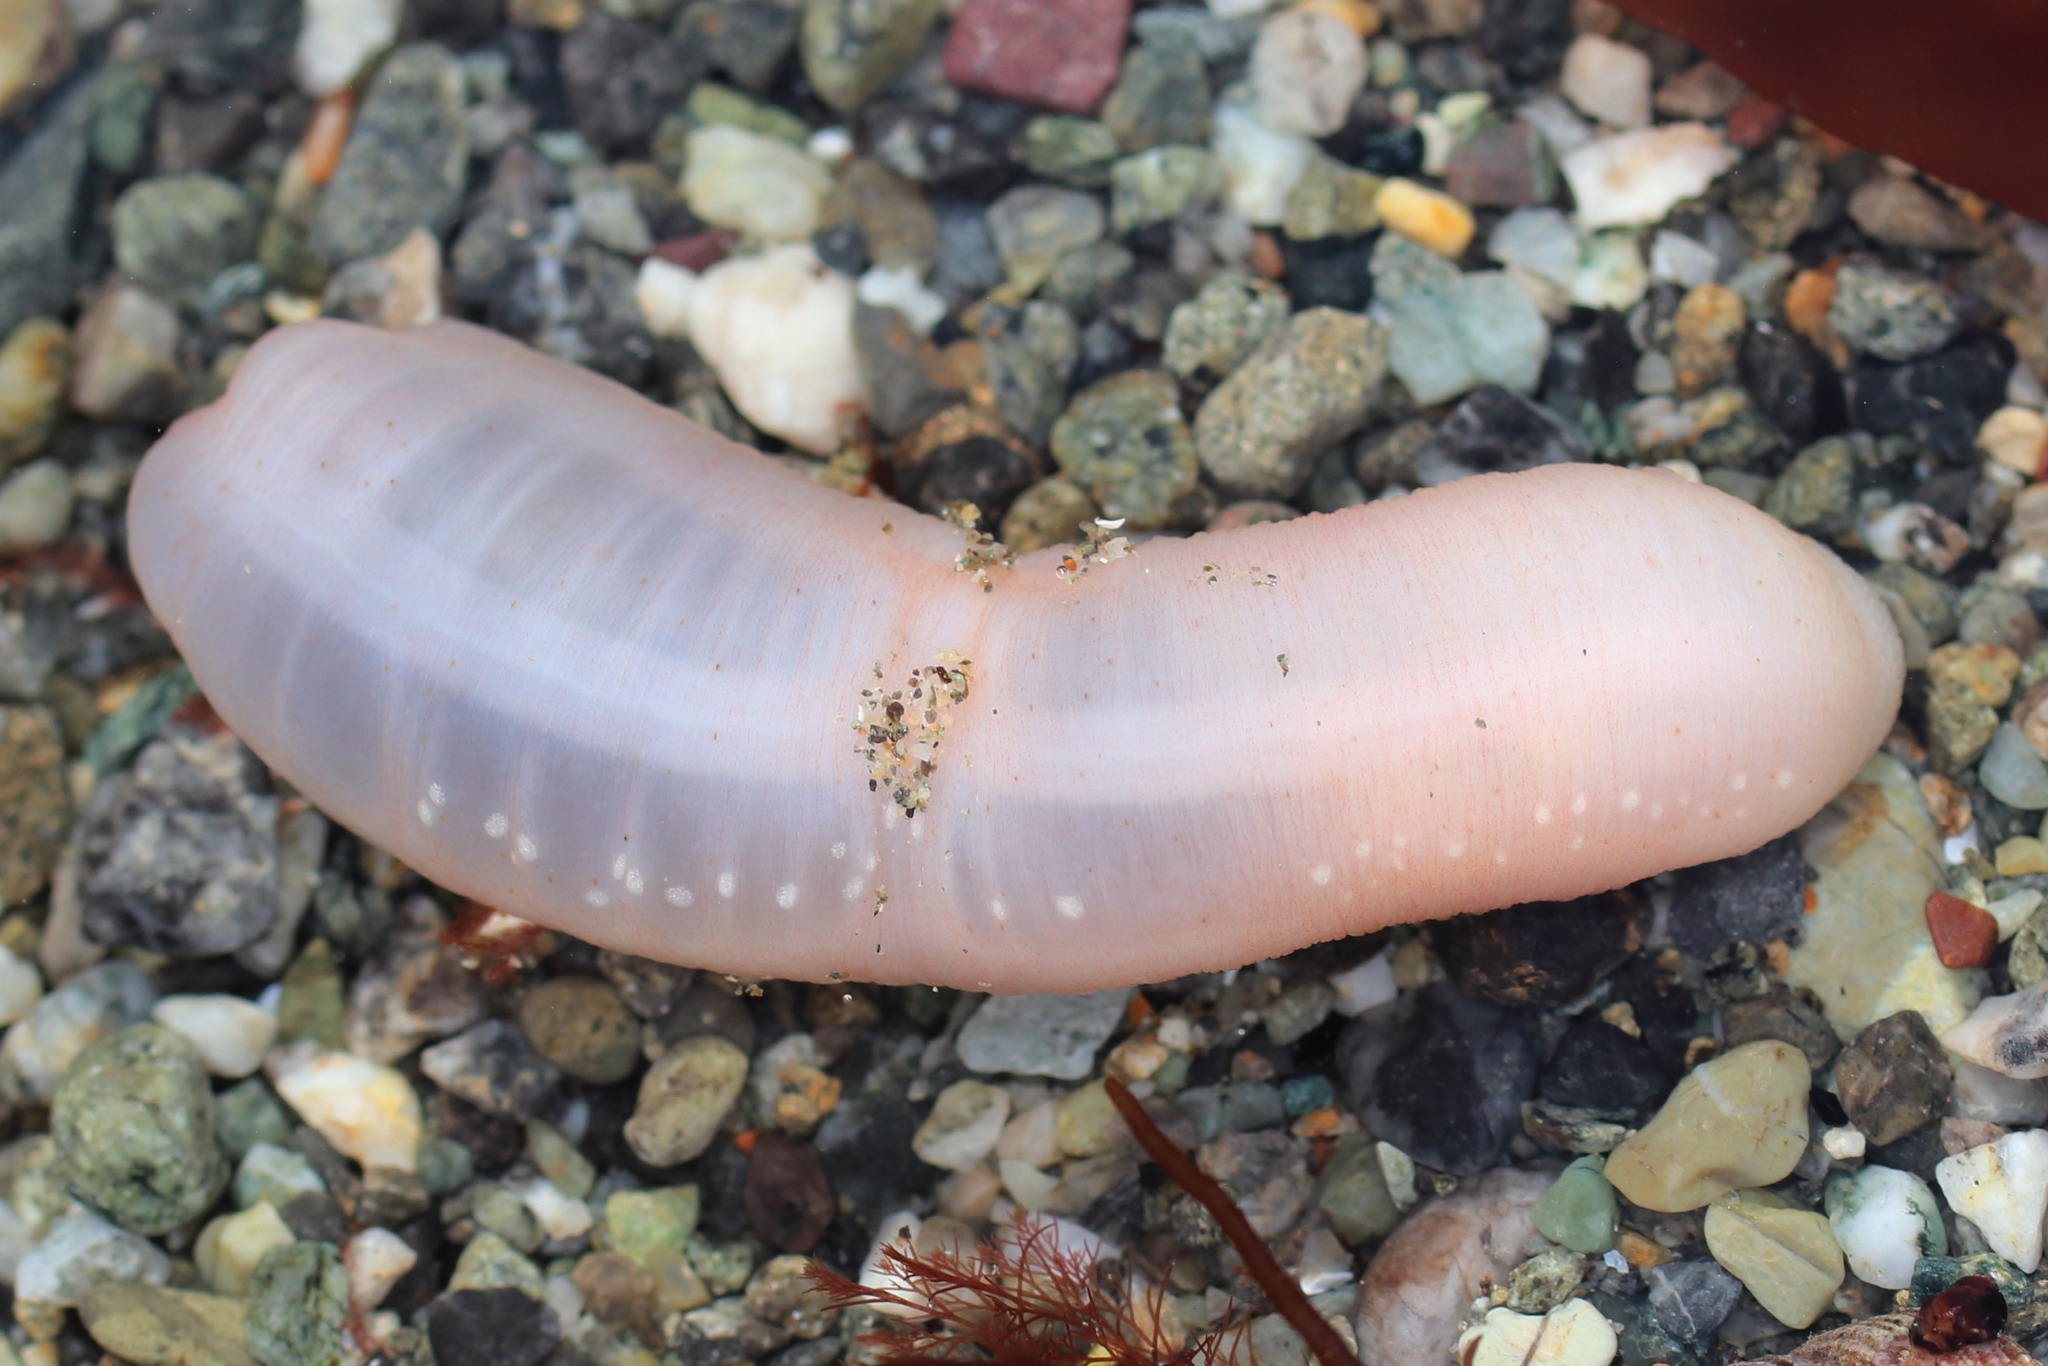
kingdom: Animalia
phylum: Echinodermata
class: Holothuroidea
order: Apodida
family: Chiridotidae
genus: Chiridota
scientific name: Chiridota discolor
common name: Jellybean footless sea cucumber
